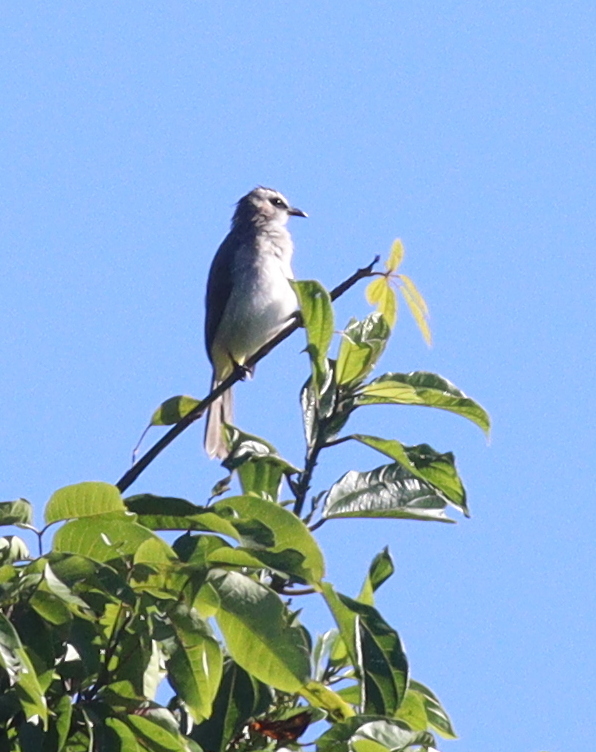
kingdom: Animalia
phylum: Chordata
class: Aves
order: Passeriformes
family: Pycnonotidae
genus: Pycnonotus
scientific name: Pycnonotus goiavier
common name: Yellow-vented bulbul
